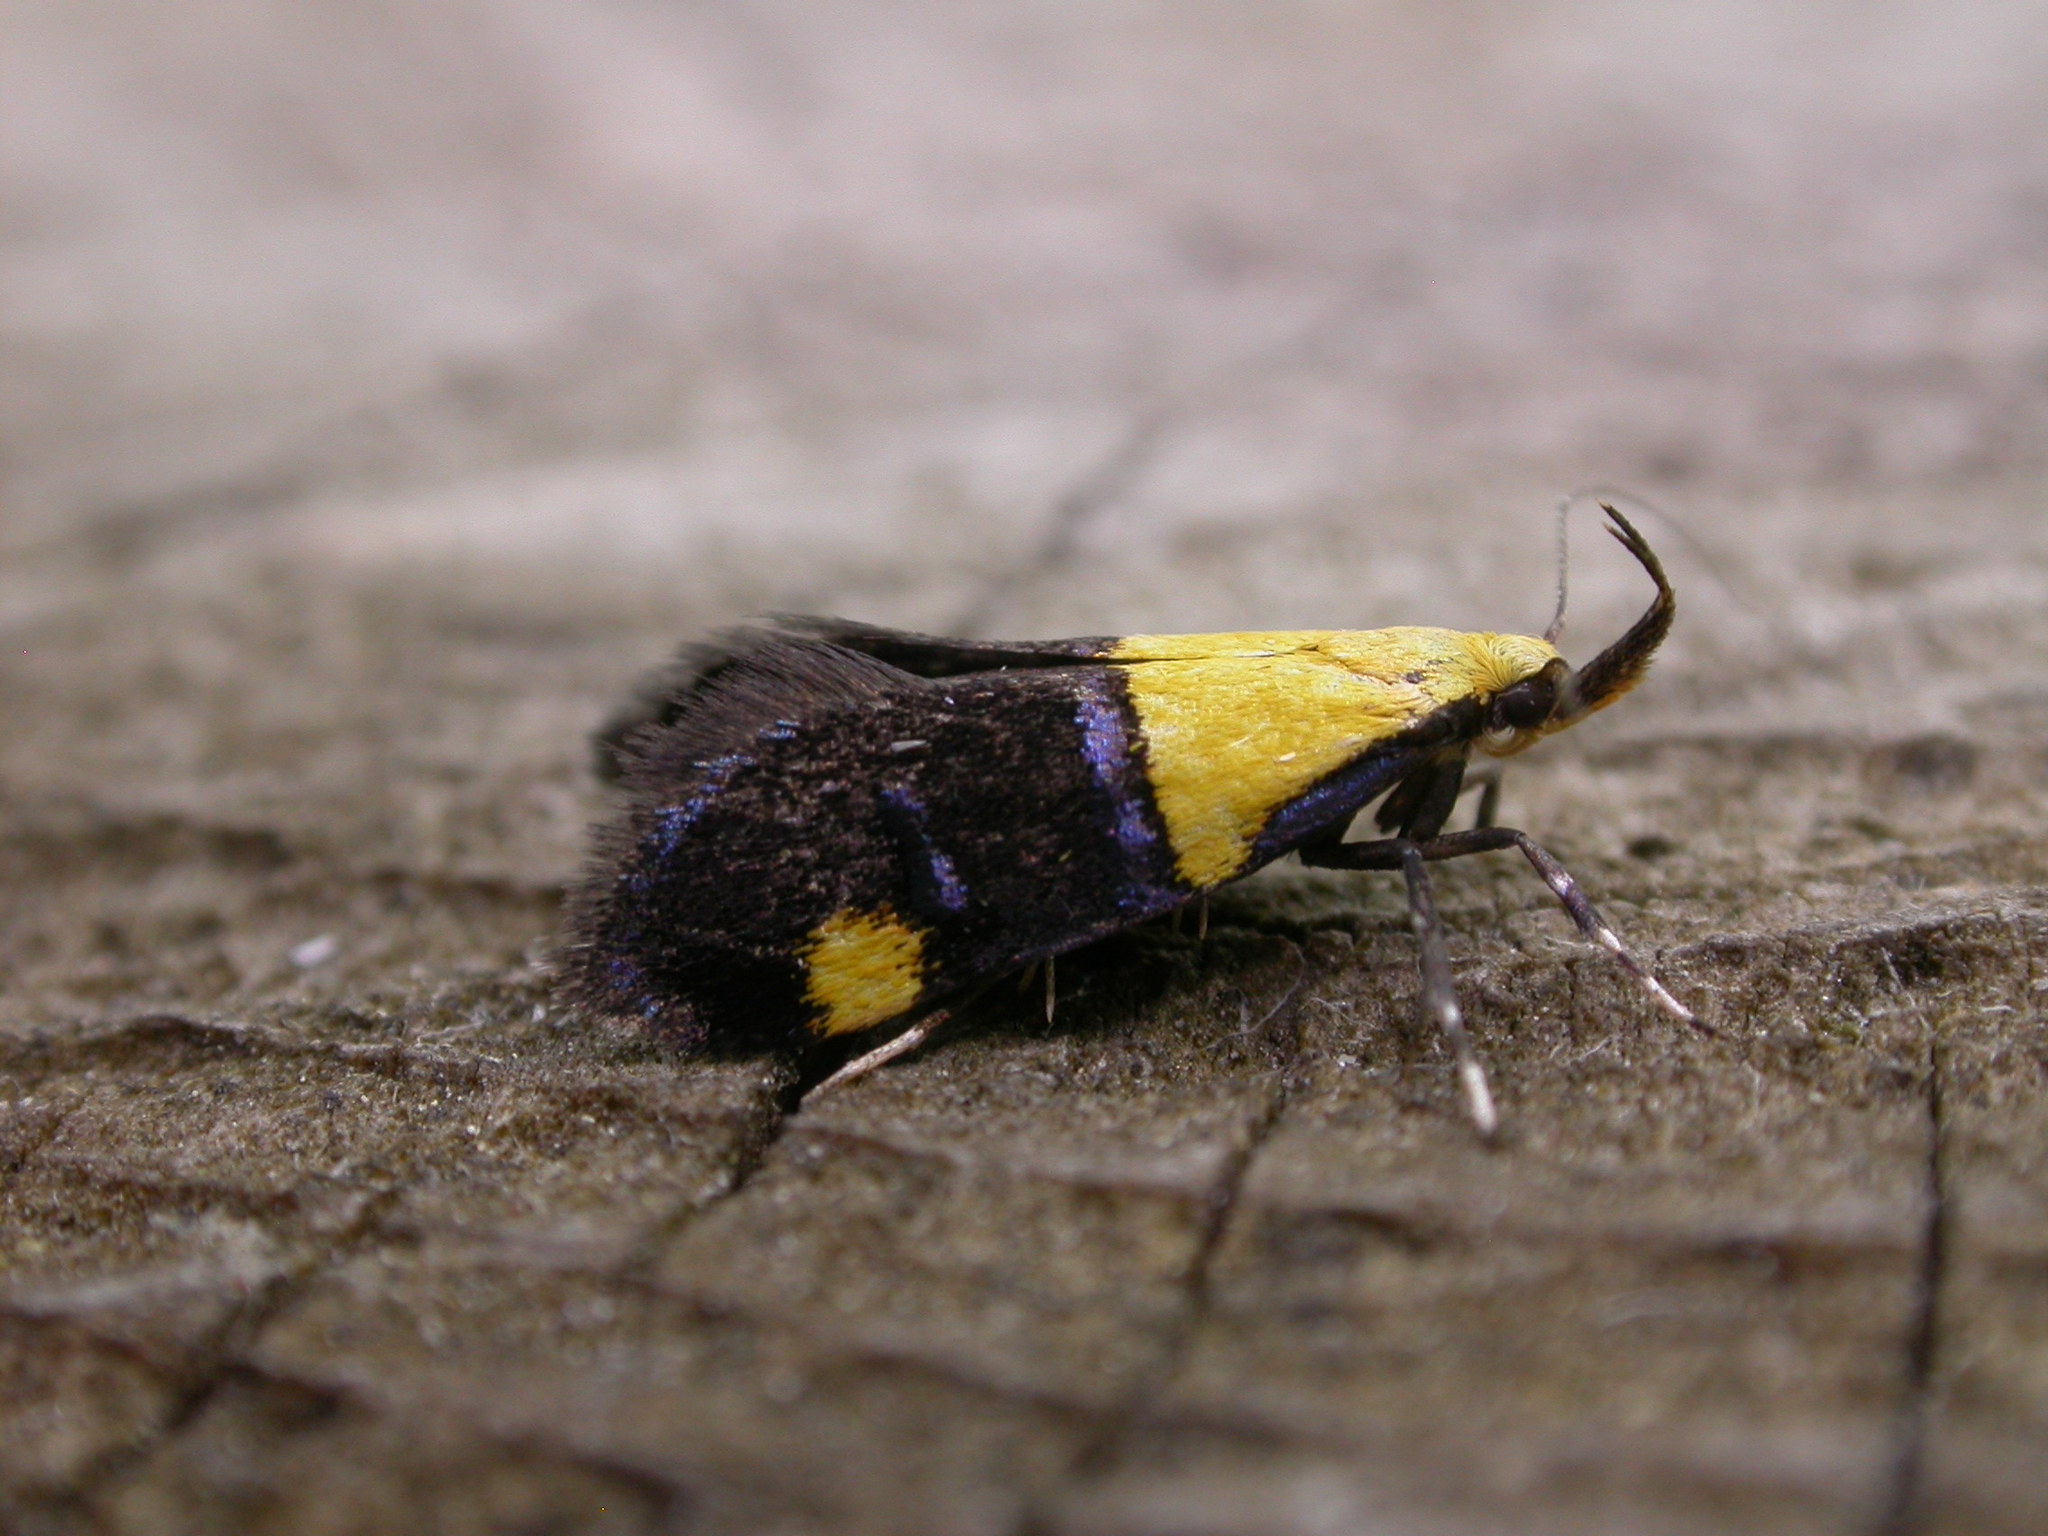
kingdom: Animalia
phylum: Arthropoda
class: Insecta
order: Lepidoptera
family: Oecophoridae
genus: Oecophora
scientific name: Oecophora bractella
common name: Gold-base tubic
